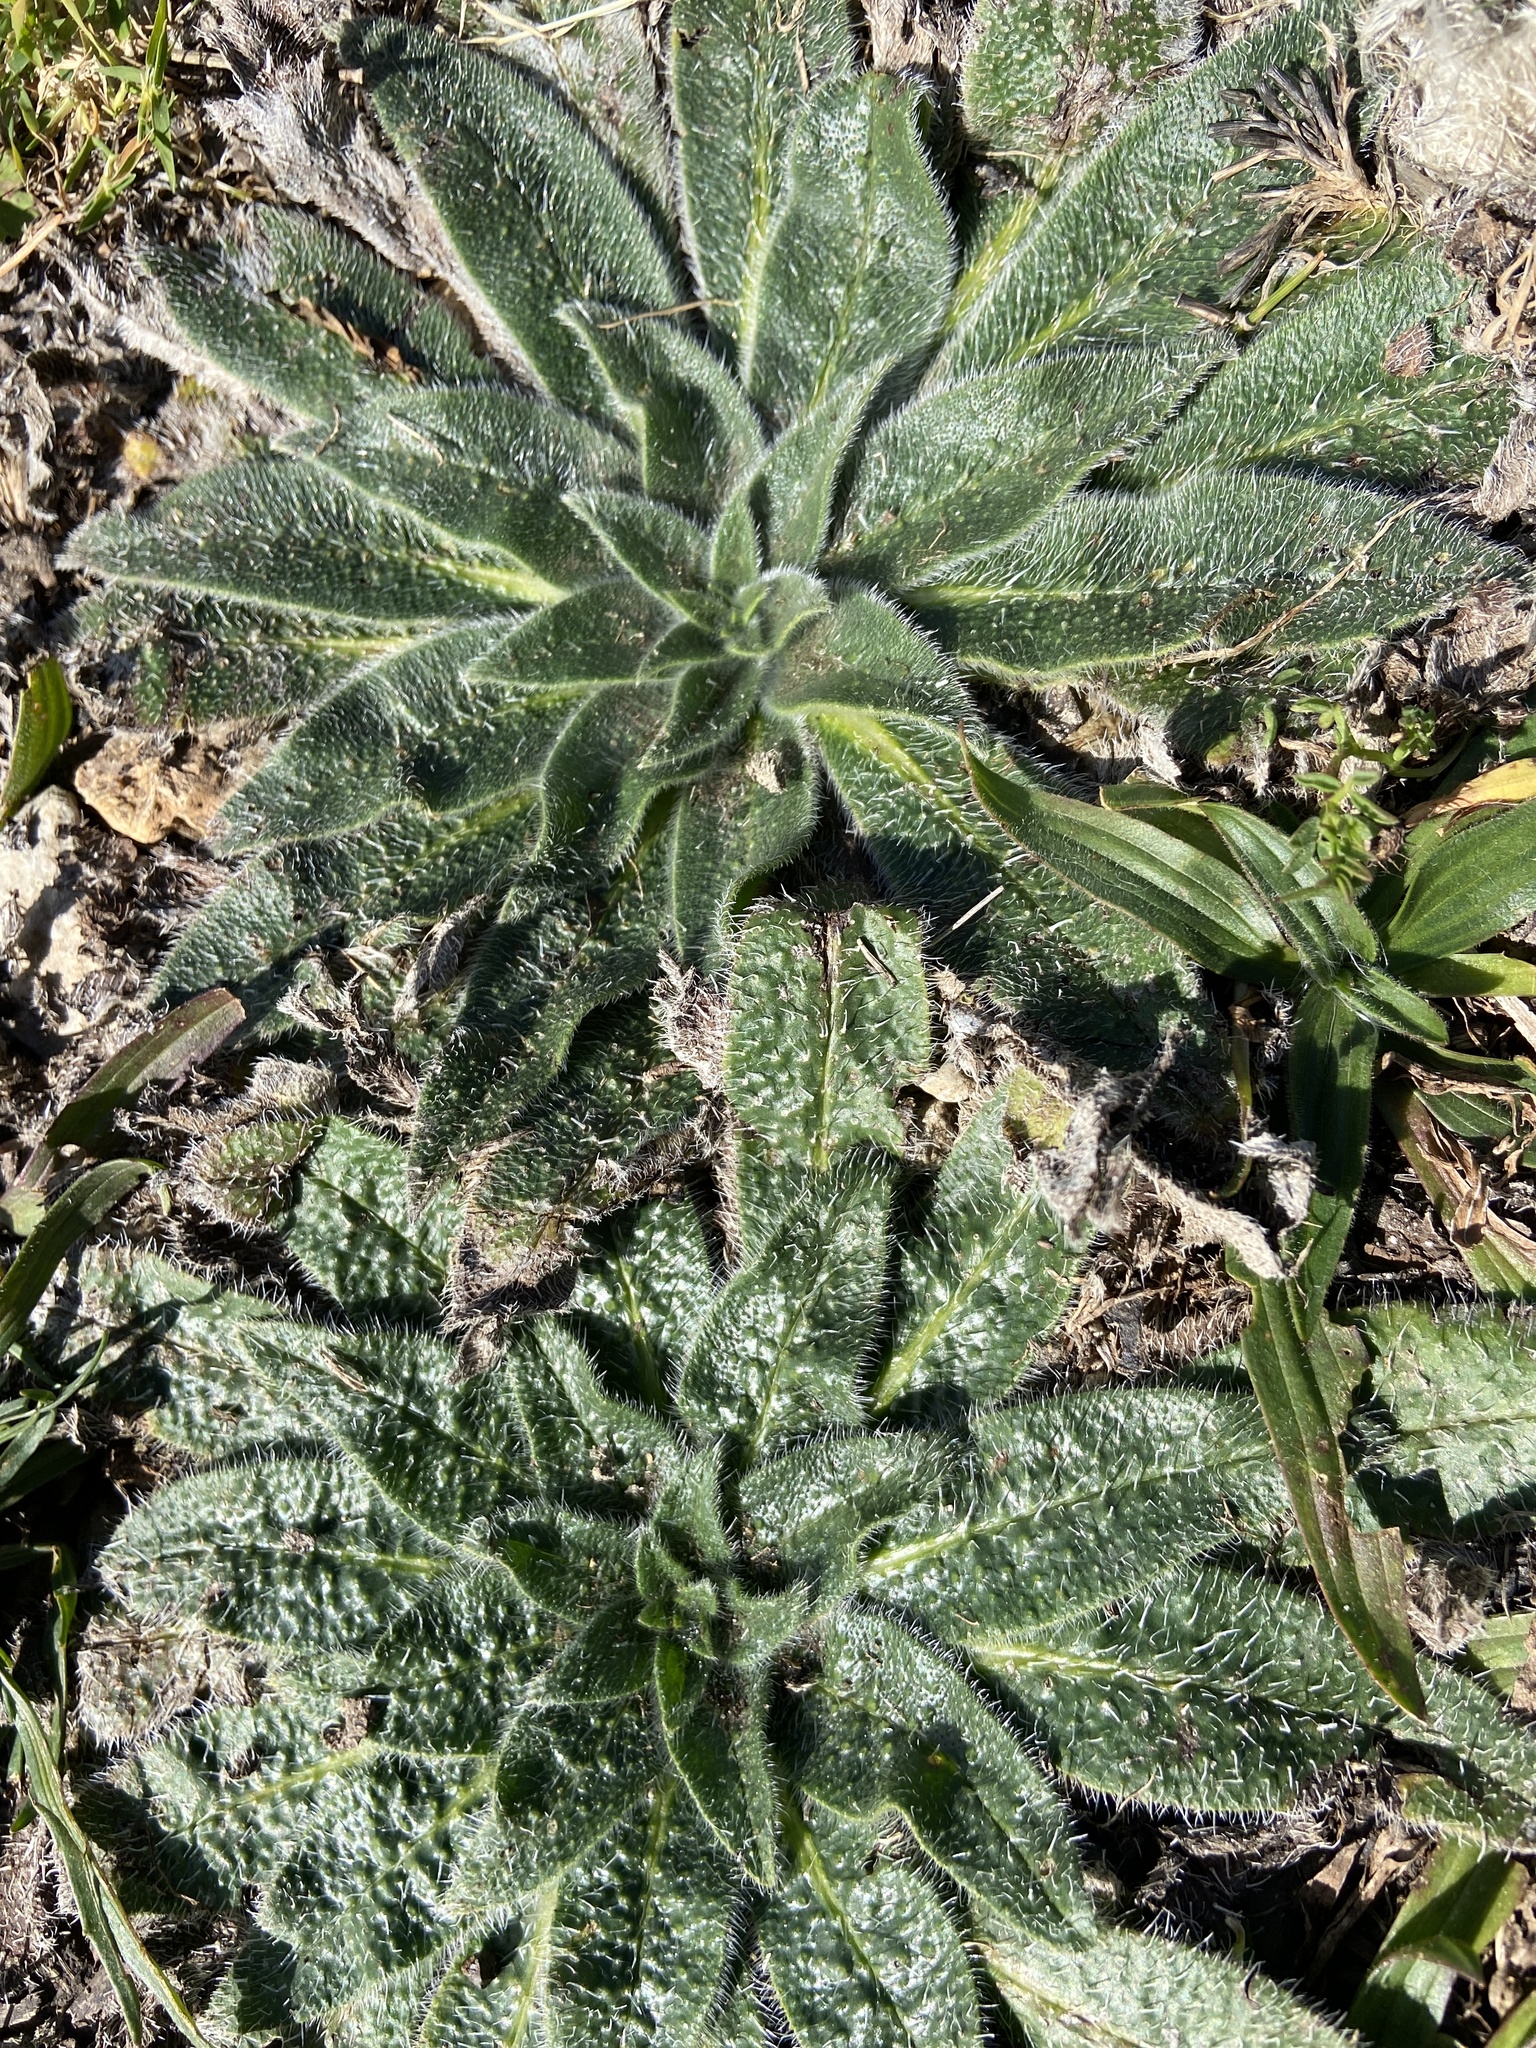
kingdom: Plantae
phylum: Tracheophyta
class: Magnoliopsida
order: Boraginales
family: Boraginaceae
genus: Echium
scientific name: Echium italicum
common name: Italian viper's bugloss
